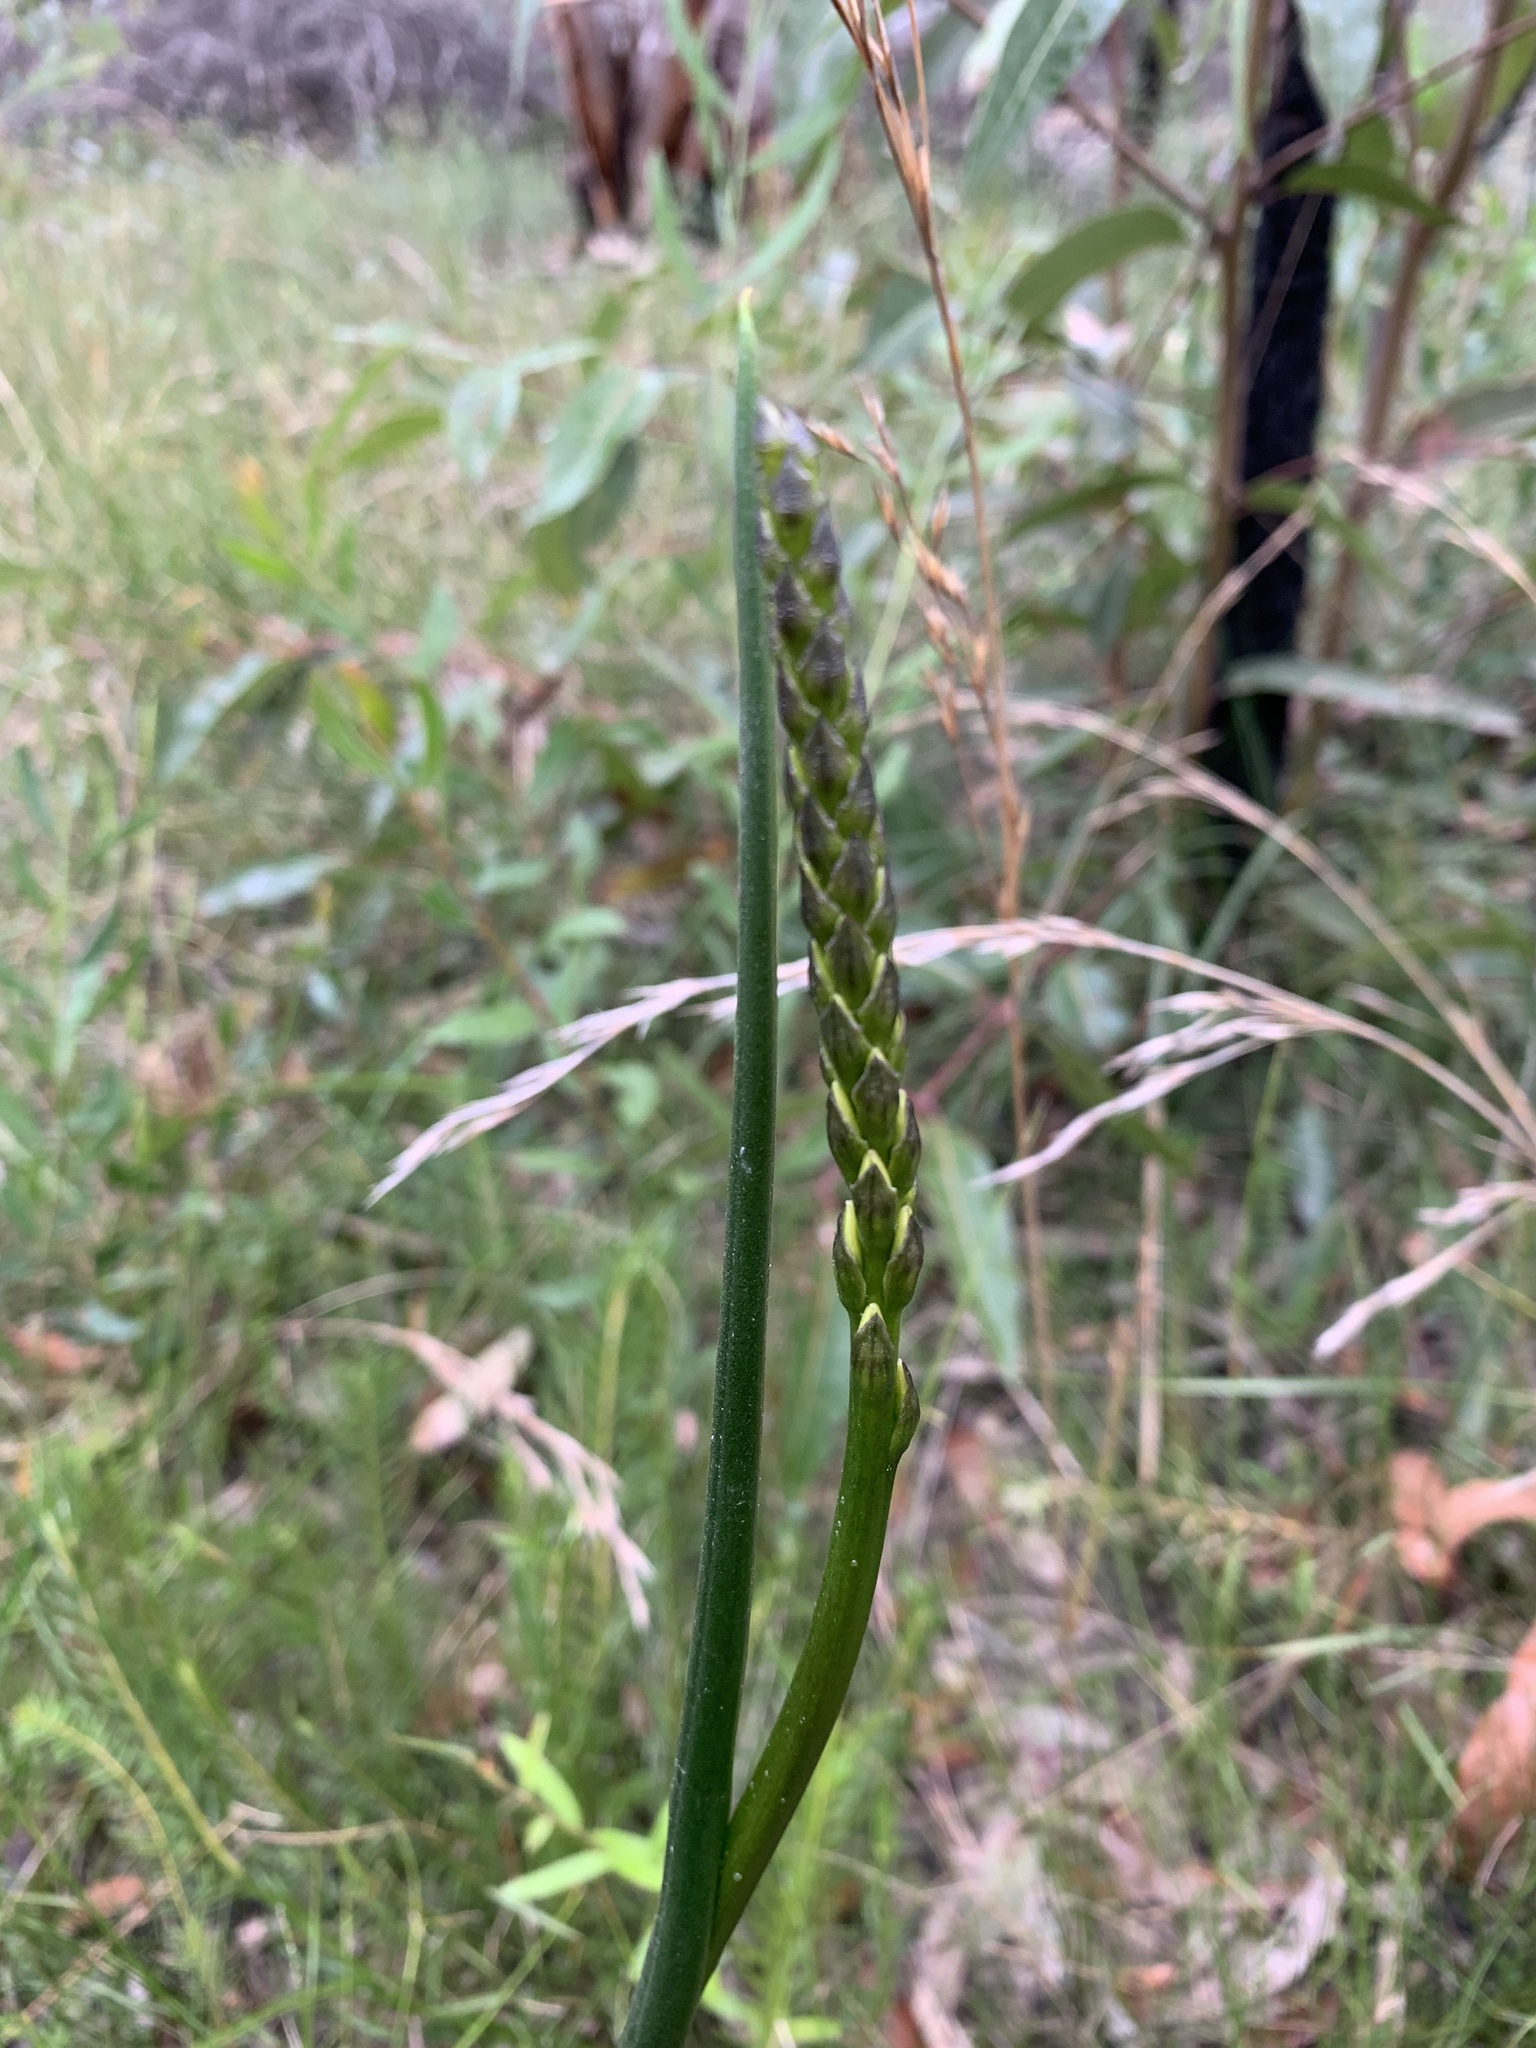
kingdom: Plantae
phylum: Tracheophyta
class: Liliopsida
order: Asparagales
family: Orchidaceae
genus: Prasophyllum
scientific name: Prasophyllum elatum
